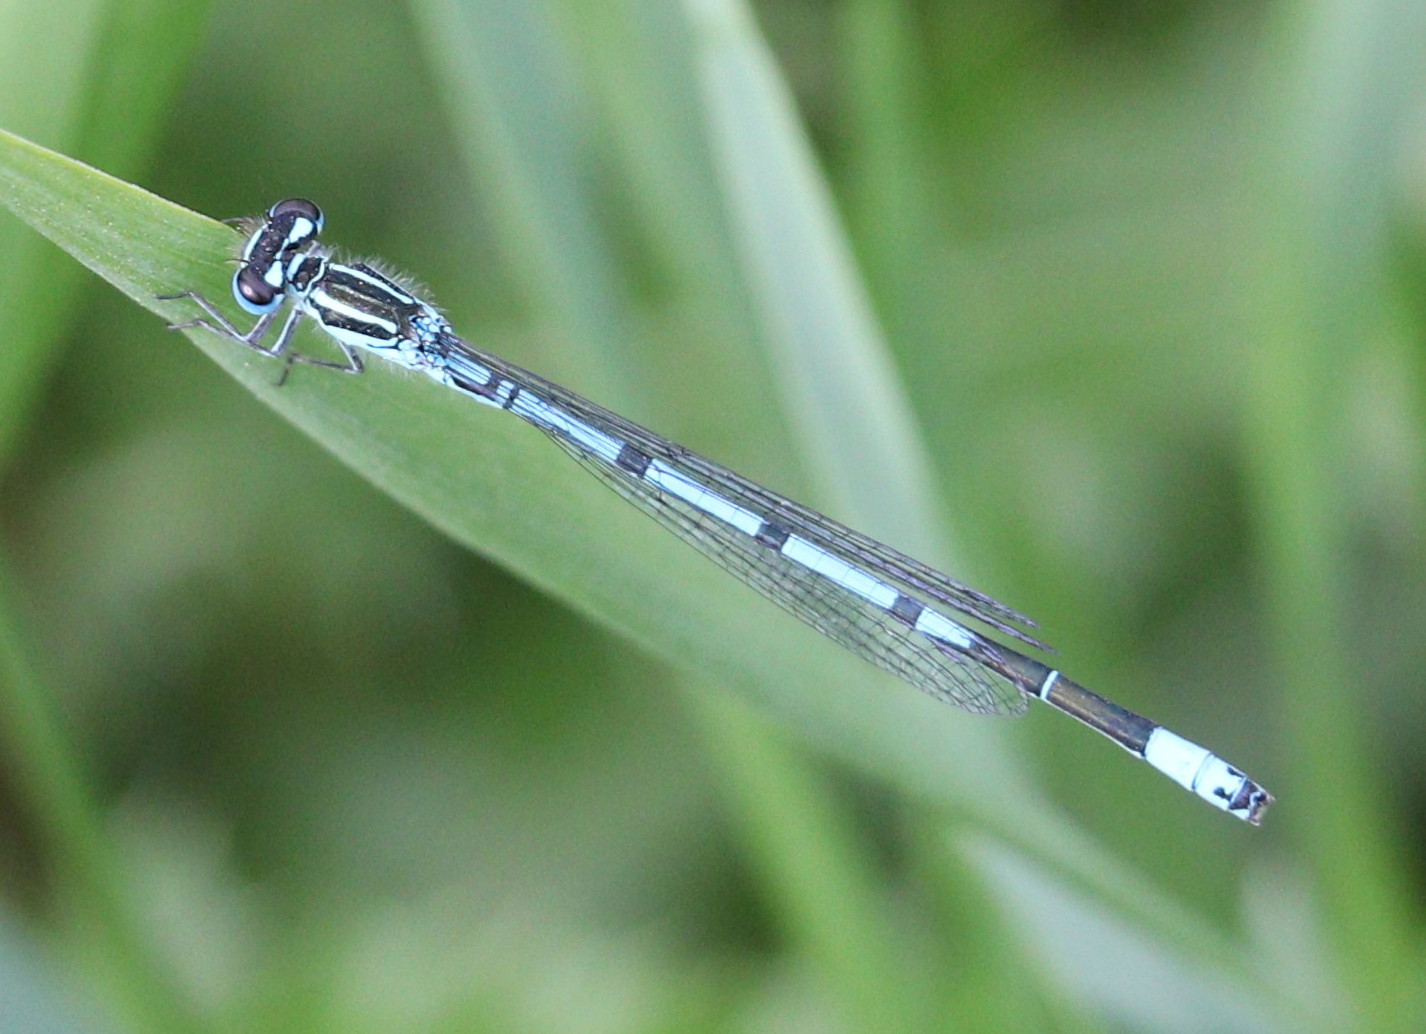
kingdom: Animalia
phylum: Arthropoda
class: Insecta
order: Odonata
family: Coenagrionidae
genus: Coenagrion
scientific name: Coenagrion puella
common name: Azure damselfly
